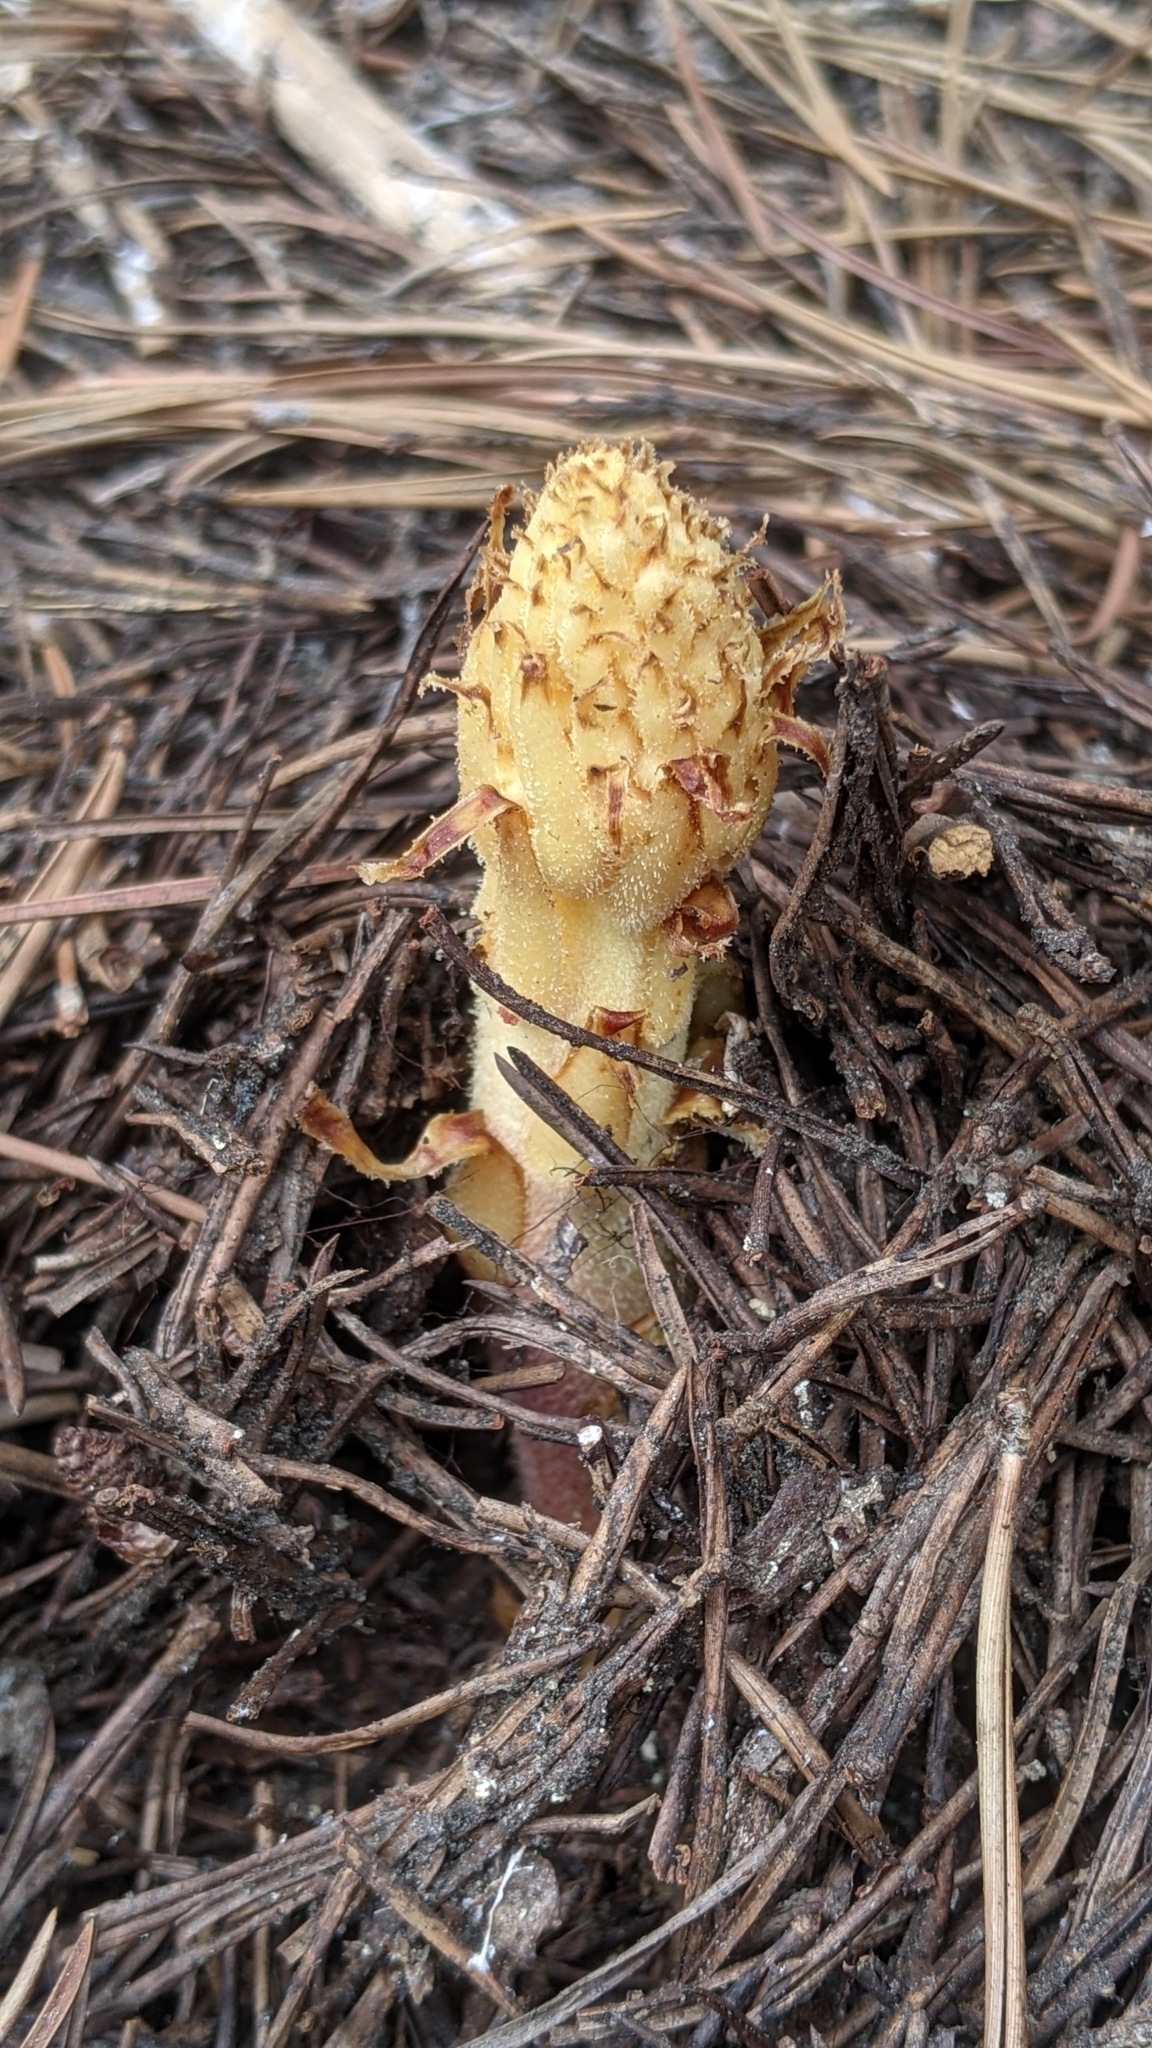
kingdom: Plantae
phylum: Tracheophyta
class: Magnoliopsida
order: Ericales
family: Ericaceae
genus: Pterospora
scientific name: Pterospora andromedea
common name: Giant bird's-nest
